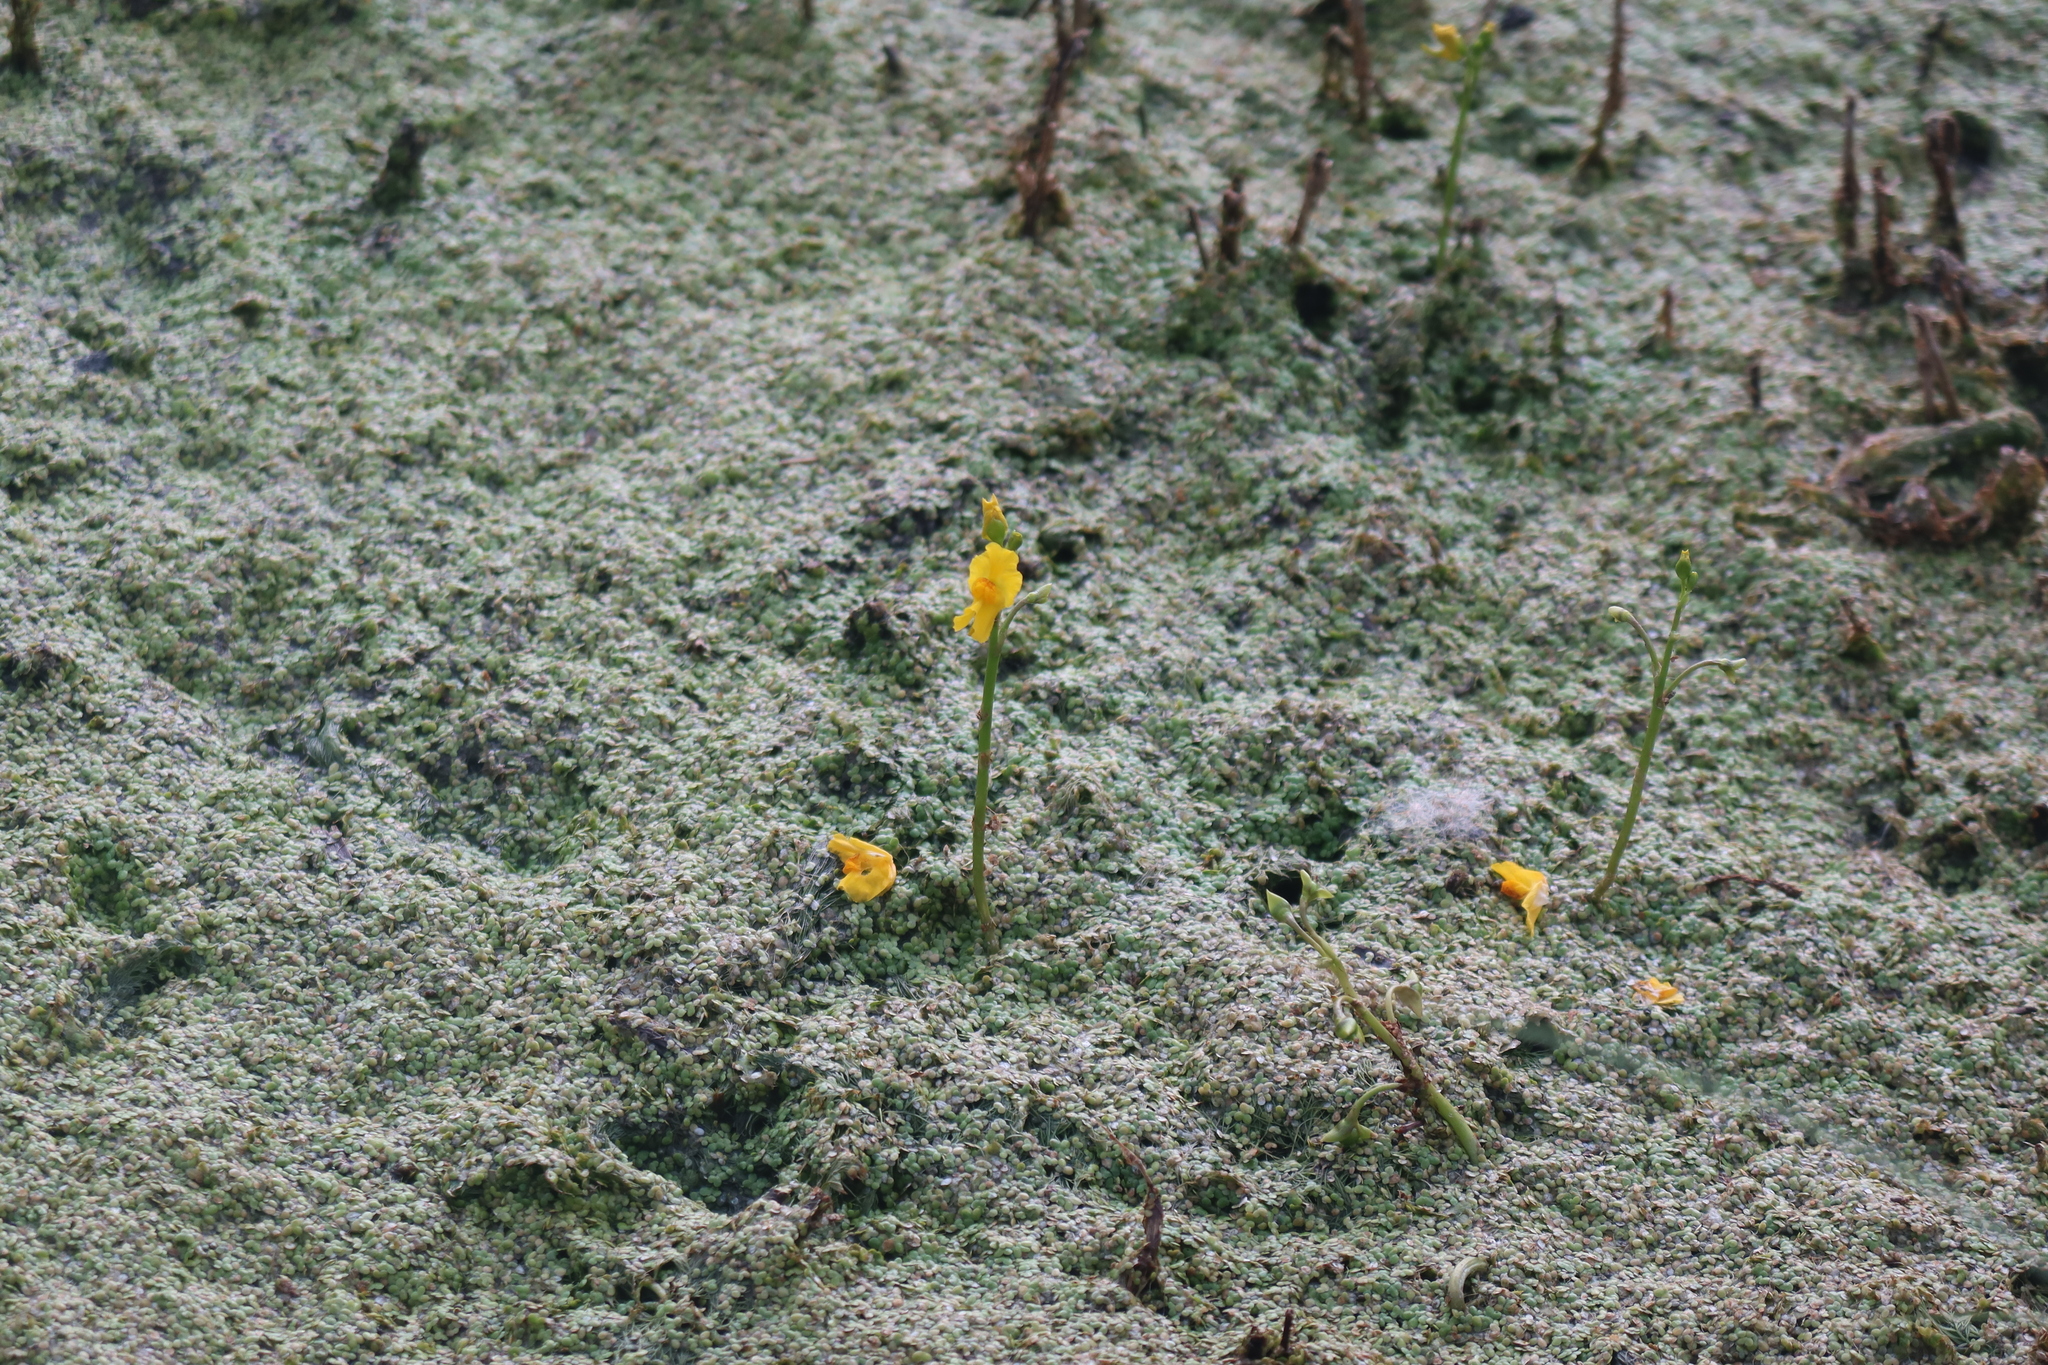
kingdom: Plantae
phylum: Tracheophyta
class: Magnoliopsida
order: Lamiales
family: Lentibulariaceae
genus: Utricularia
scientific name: Utricularia macrorhiza
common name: Common bladderwort
